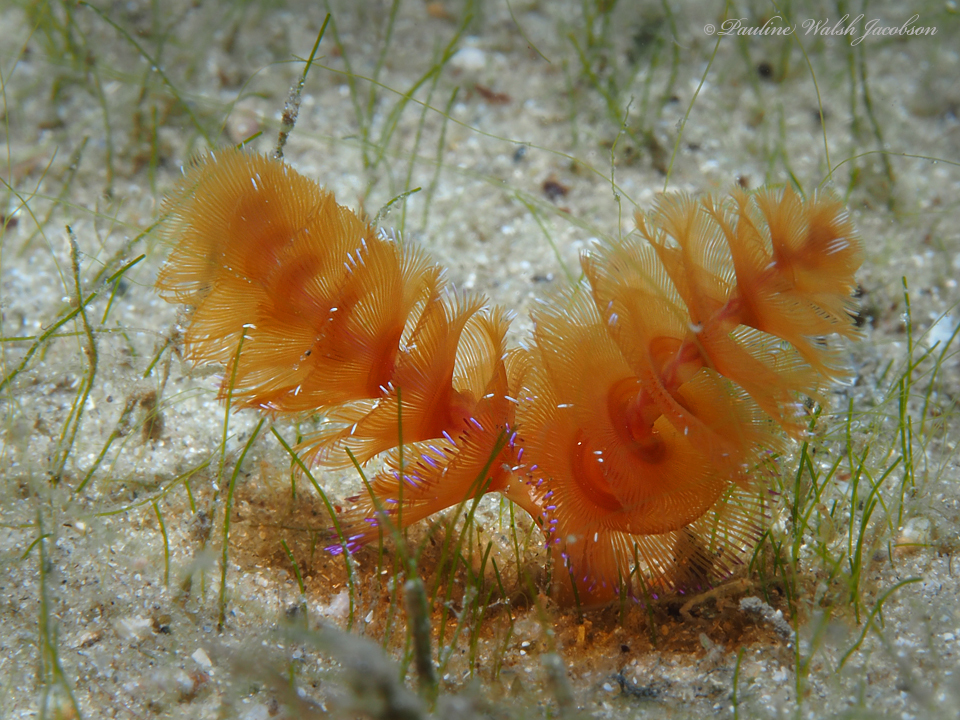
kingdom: Animalia
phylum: Phoronida
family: Phoronidae
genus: Phoronopsis
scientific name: Phoronopsis californica
